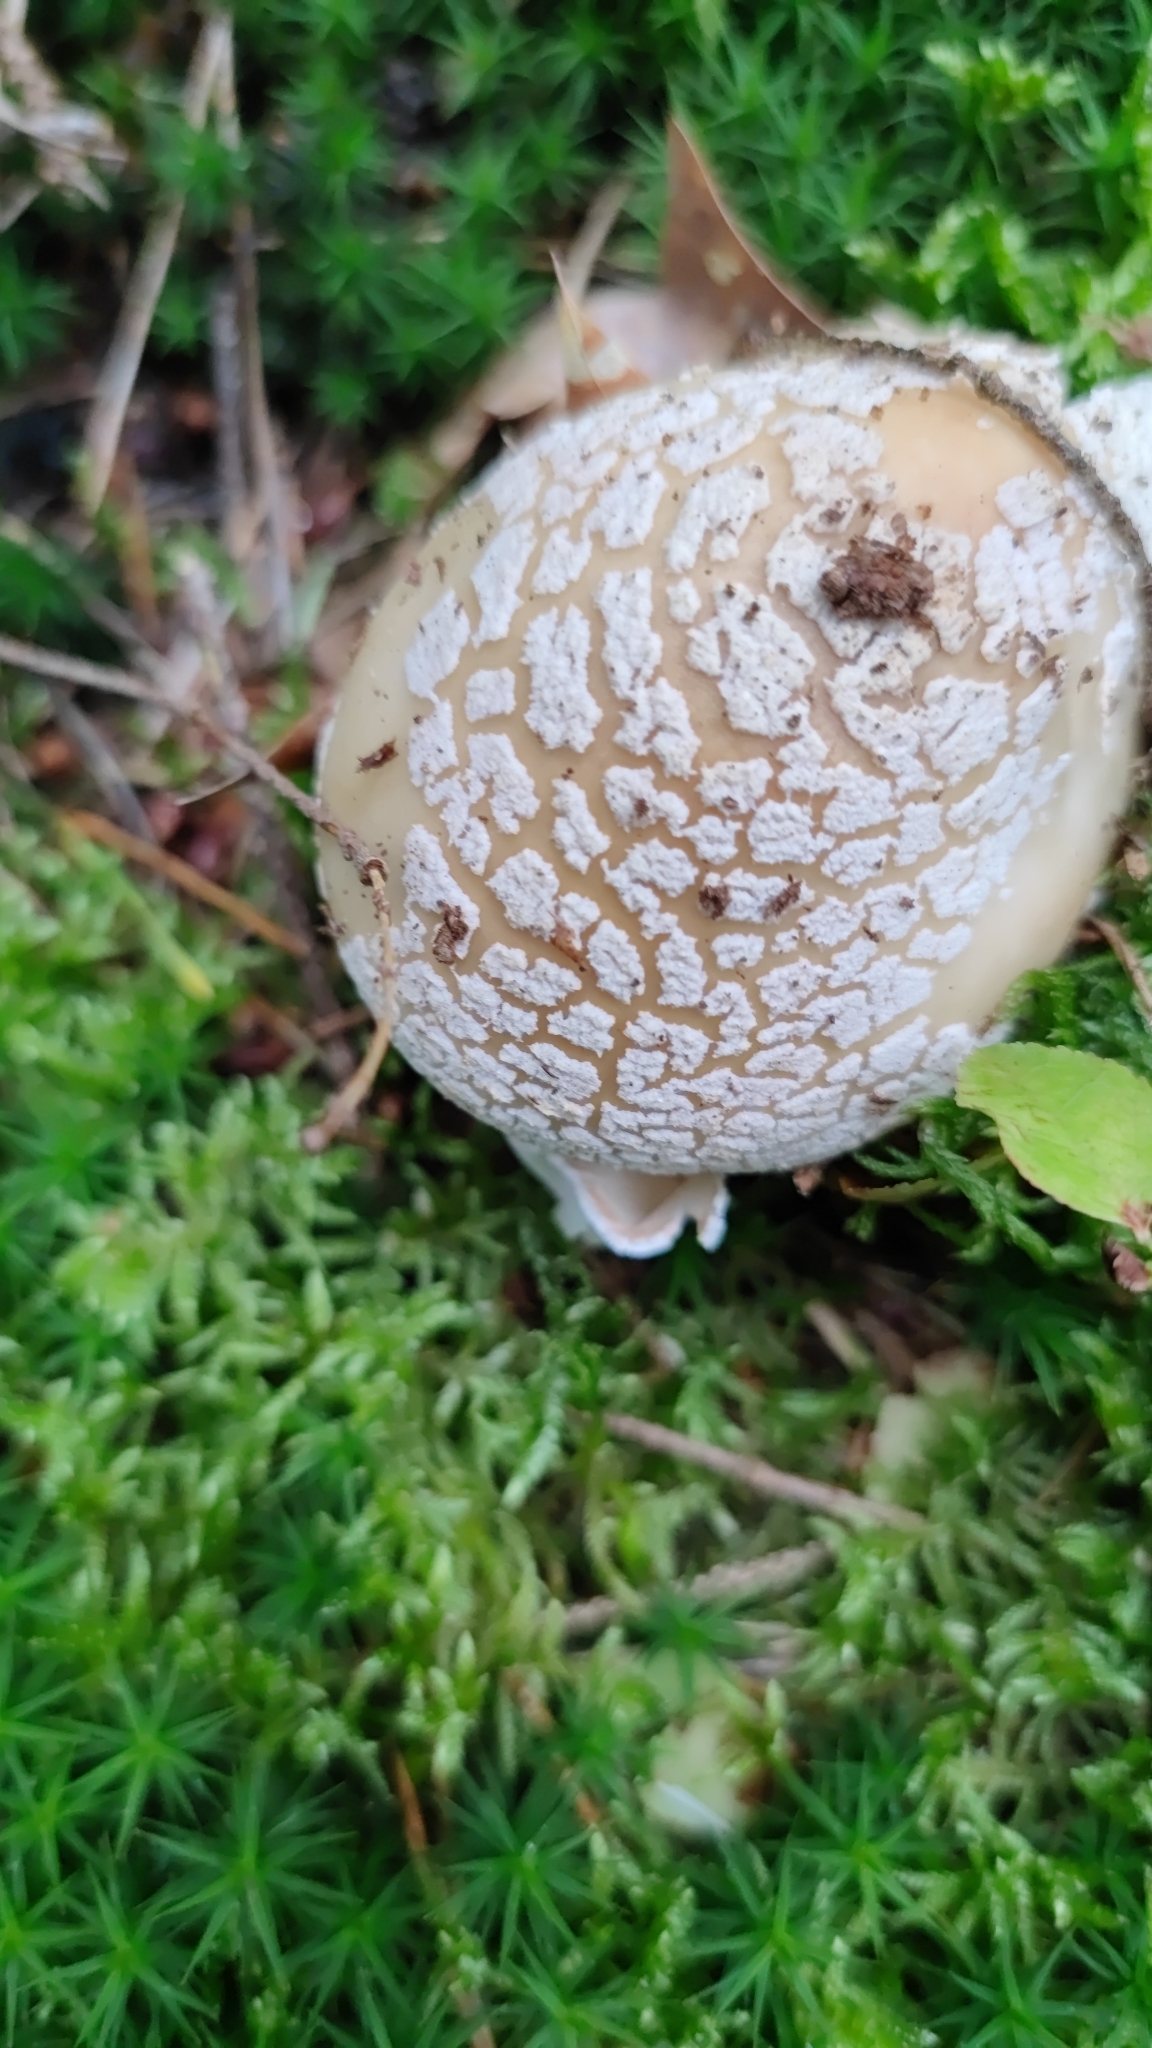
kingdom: Fungi
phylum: Basidiomycota
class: Agaricomycetes
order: Agaricales
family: Amanitaceae
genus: Amanita
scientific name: Amanita rubescens
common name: Blusher
